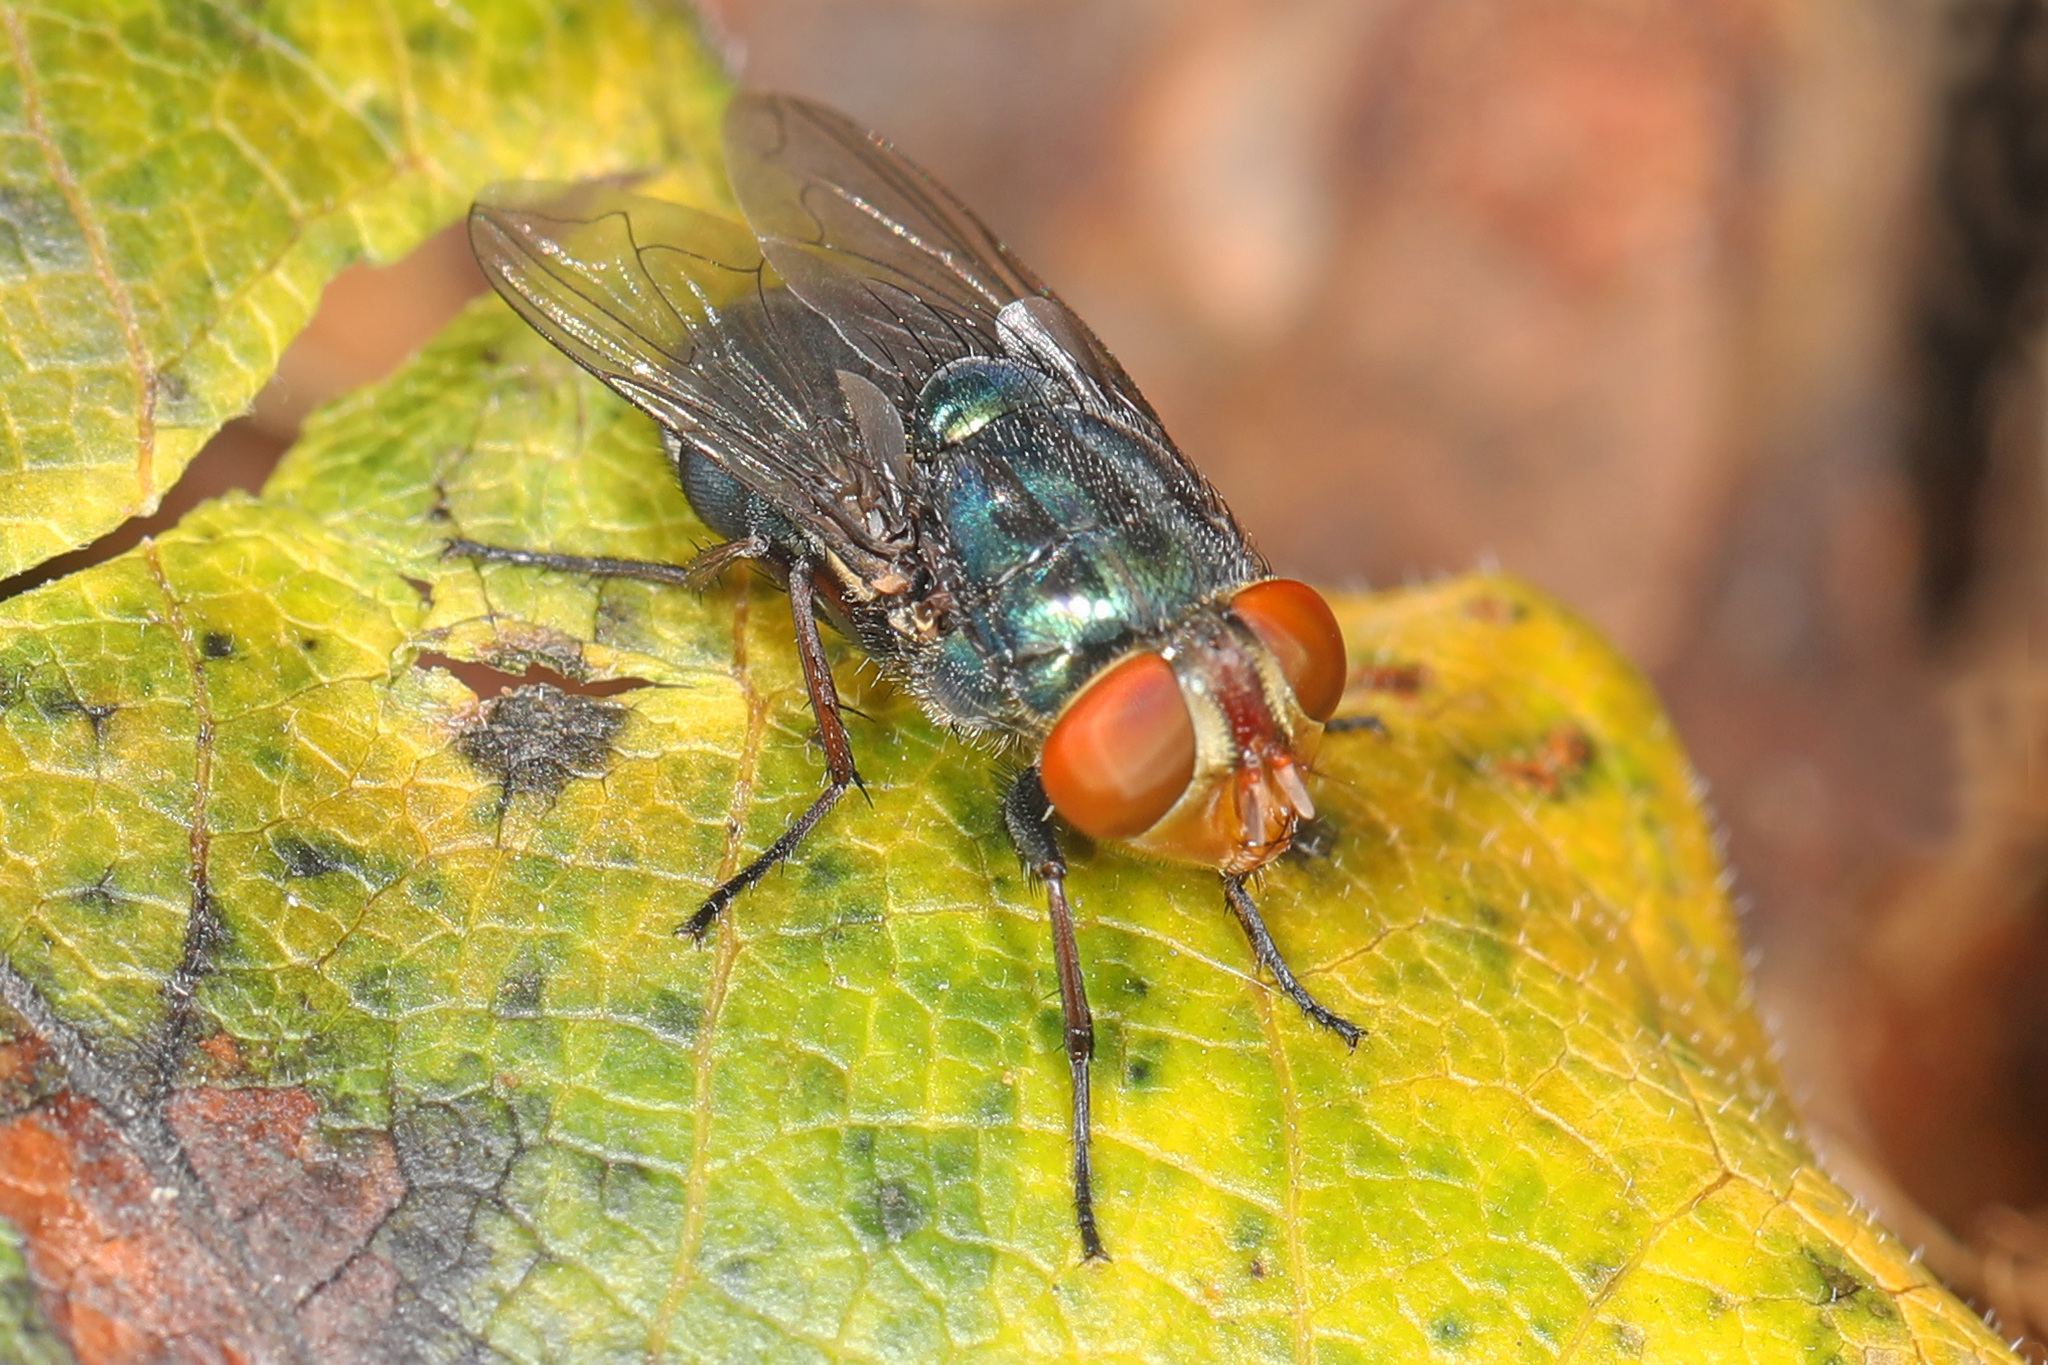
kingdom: Animalia
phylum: Arthropoda
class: Insecta
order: Diptera
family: Calliphoridae
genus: Cochliomyia
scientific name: Cochliomyia macellaria
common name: Secondary screwworm
